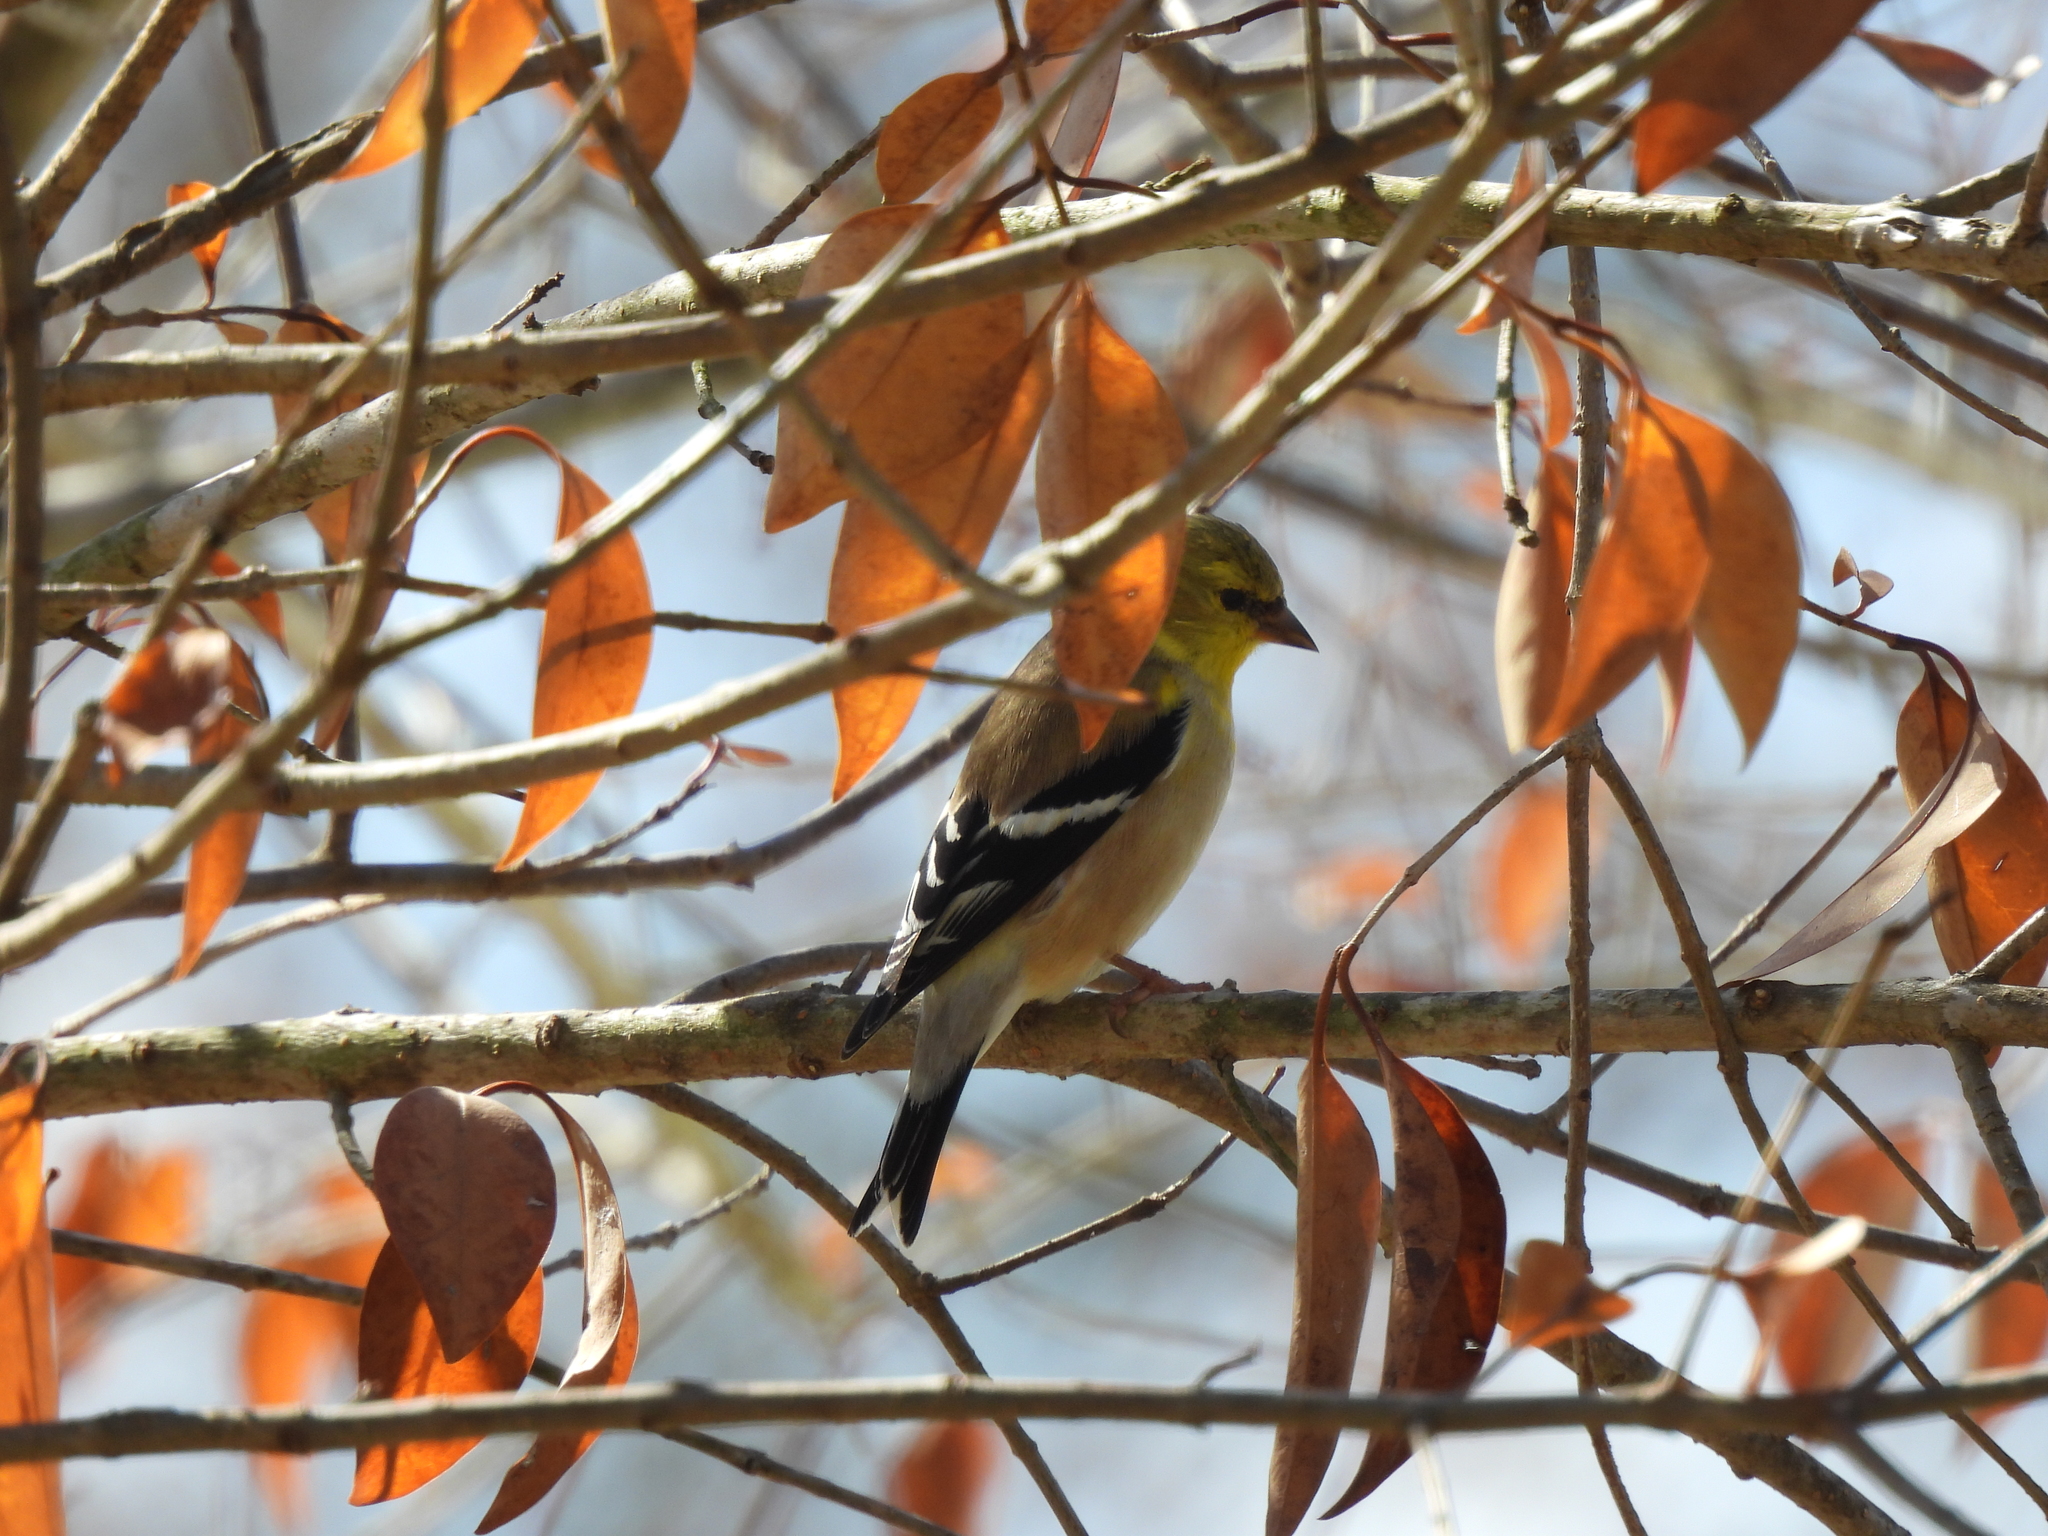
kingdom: Animalia
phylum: Chordata
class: Aves
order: Passeriformes
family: Fringillidae
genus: Spinus
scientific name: Spinus tristis
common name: American goldfinch
